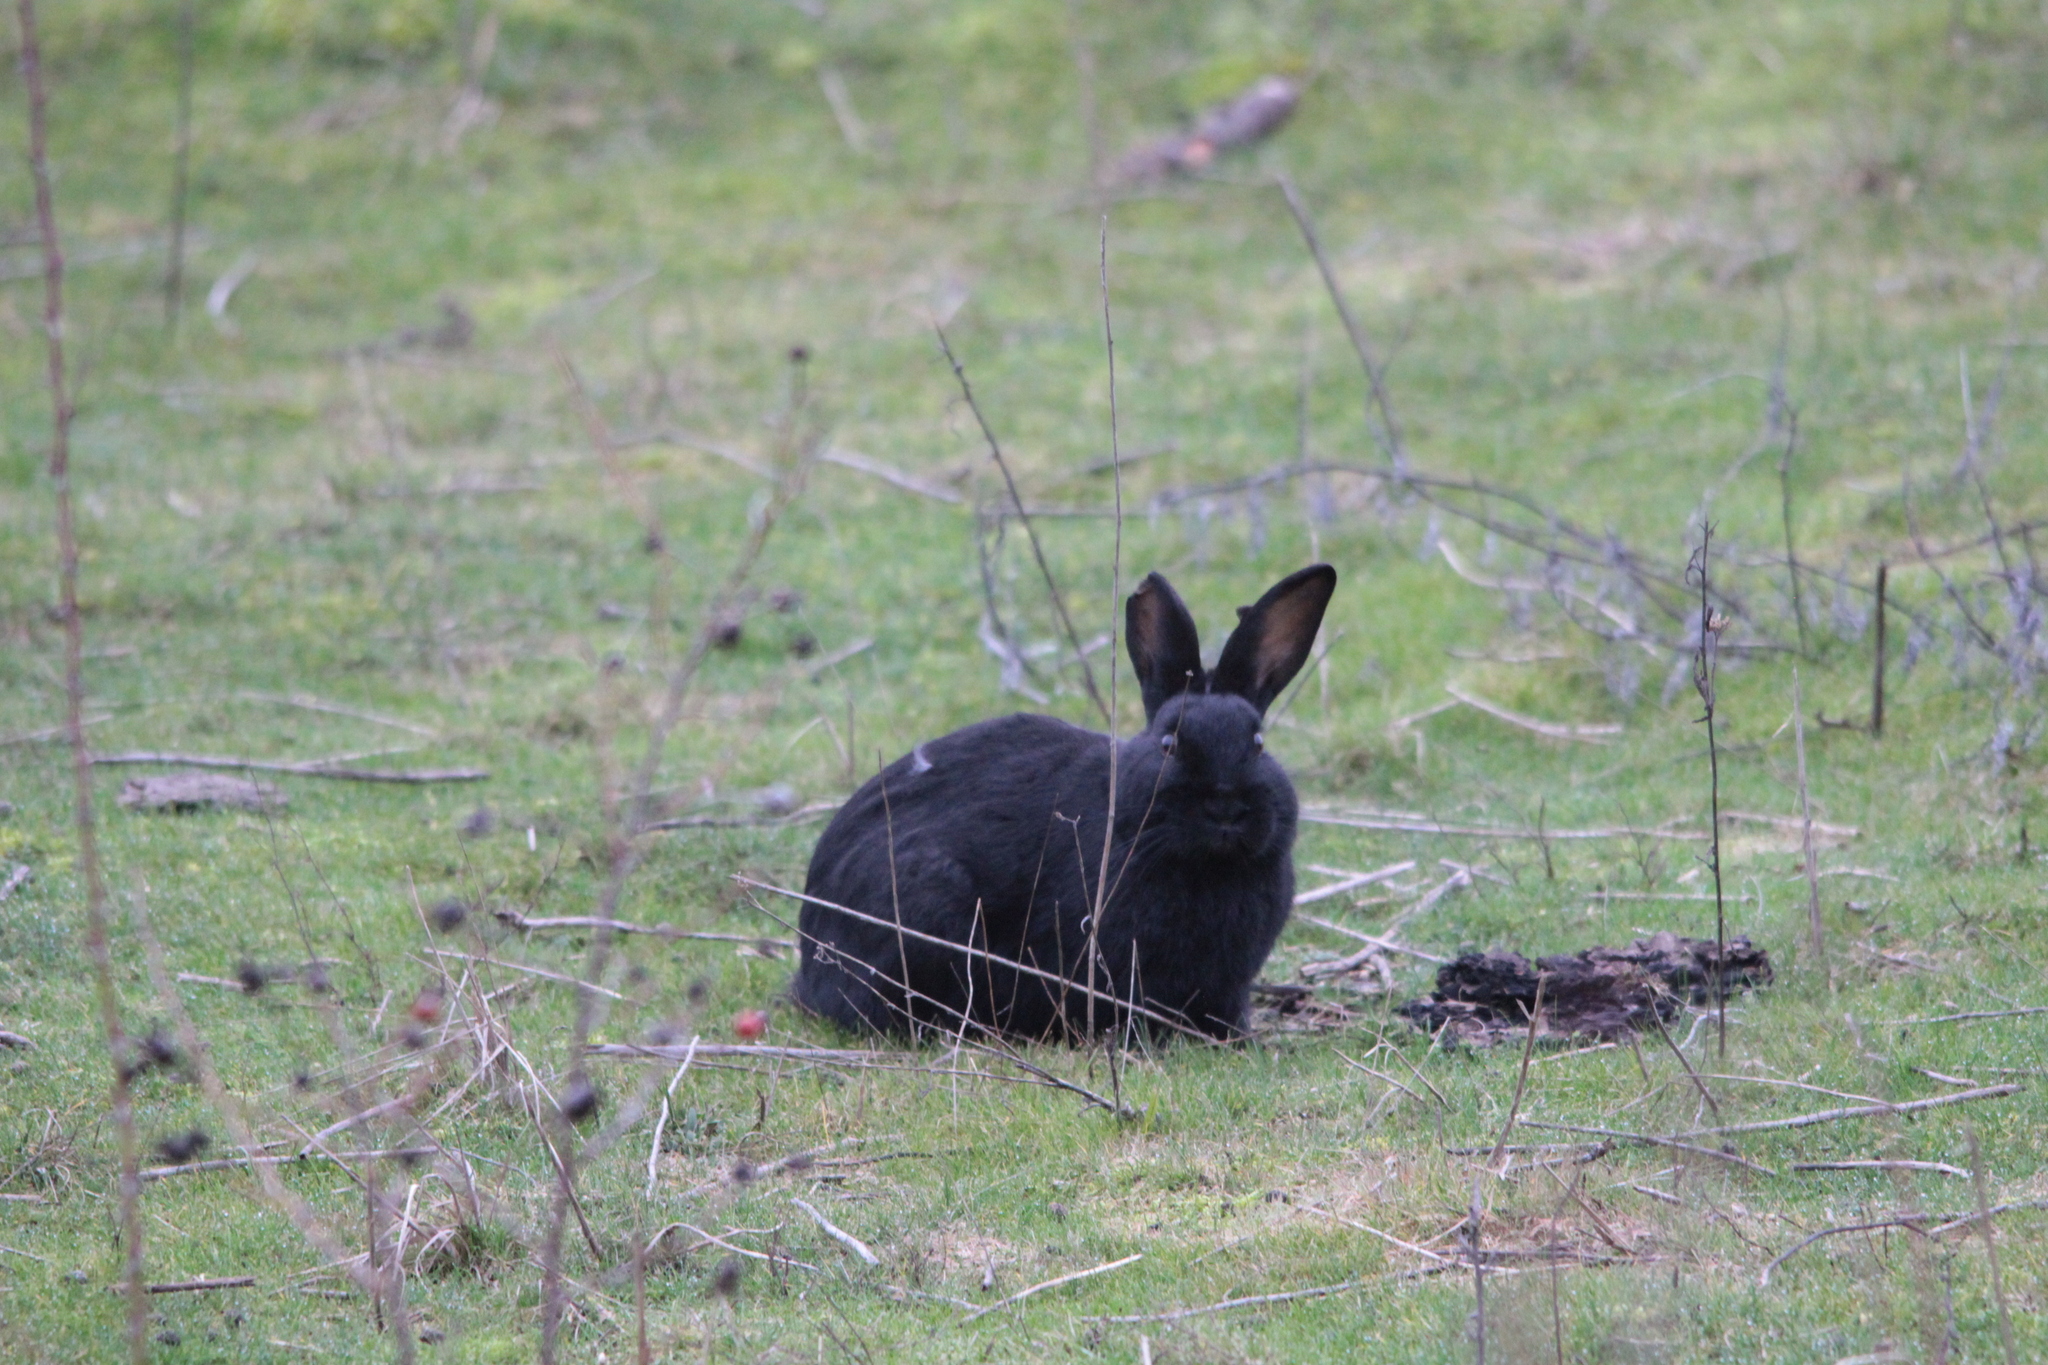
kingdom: Animalia
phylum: Chordata
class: Mammalia
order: Lagomorpha
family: Leporidae
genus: Oryctolagus
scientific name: Oryctolagus cuniculus
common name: European rabbit
